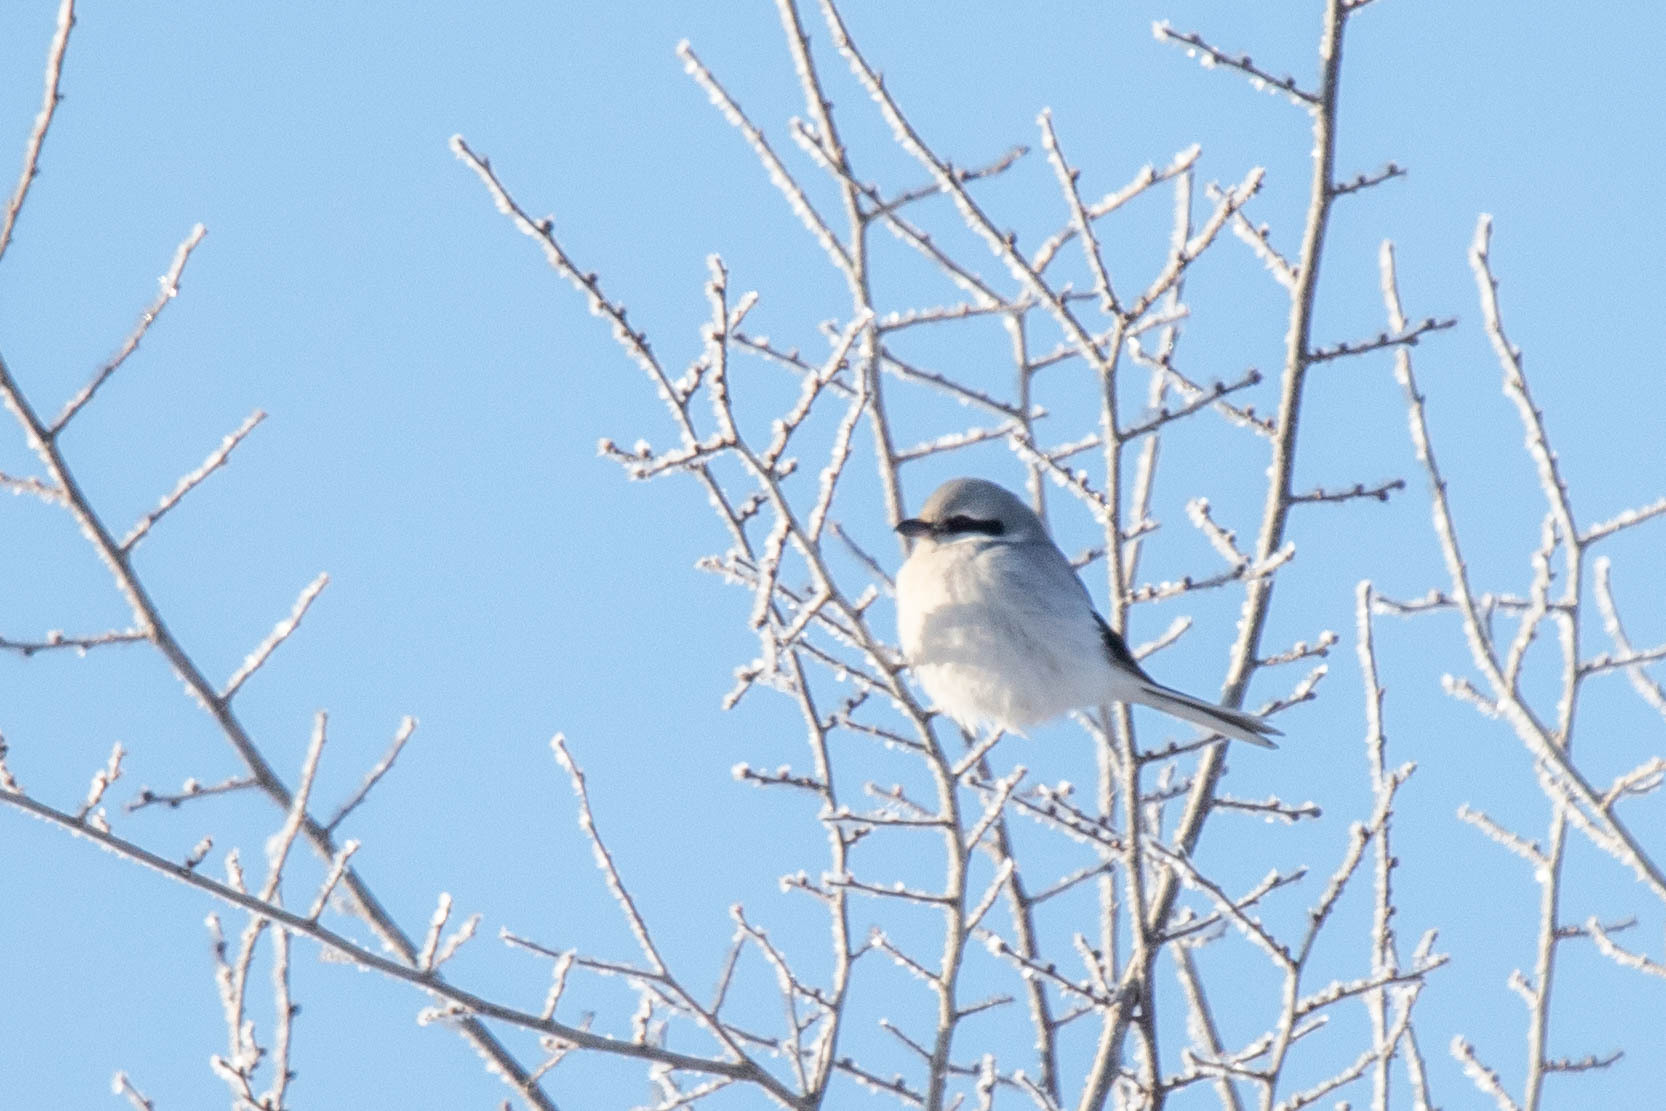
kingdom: Animalia
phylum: Chordata
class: Aves
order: Passeriformes
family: Laniidae
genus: Lanius
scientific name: Lanius excubitor
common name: Great grey shrike
